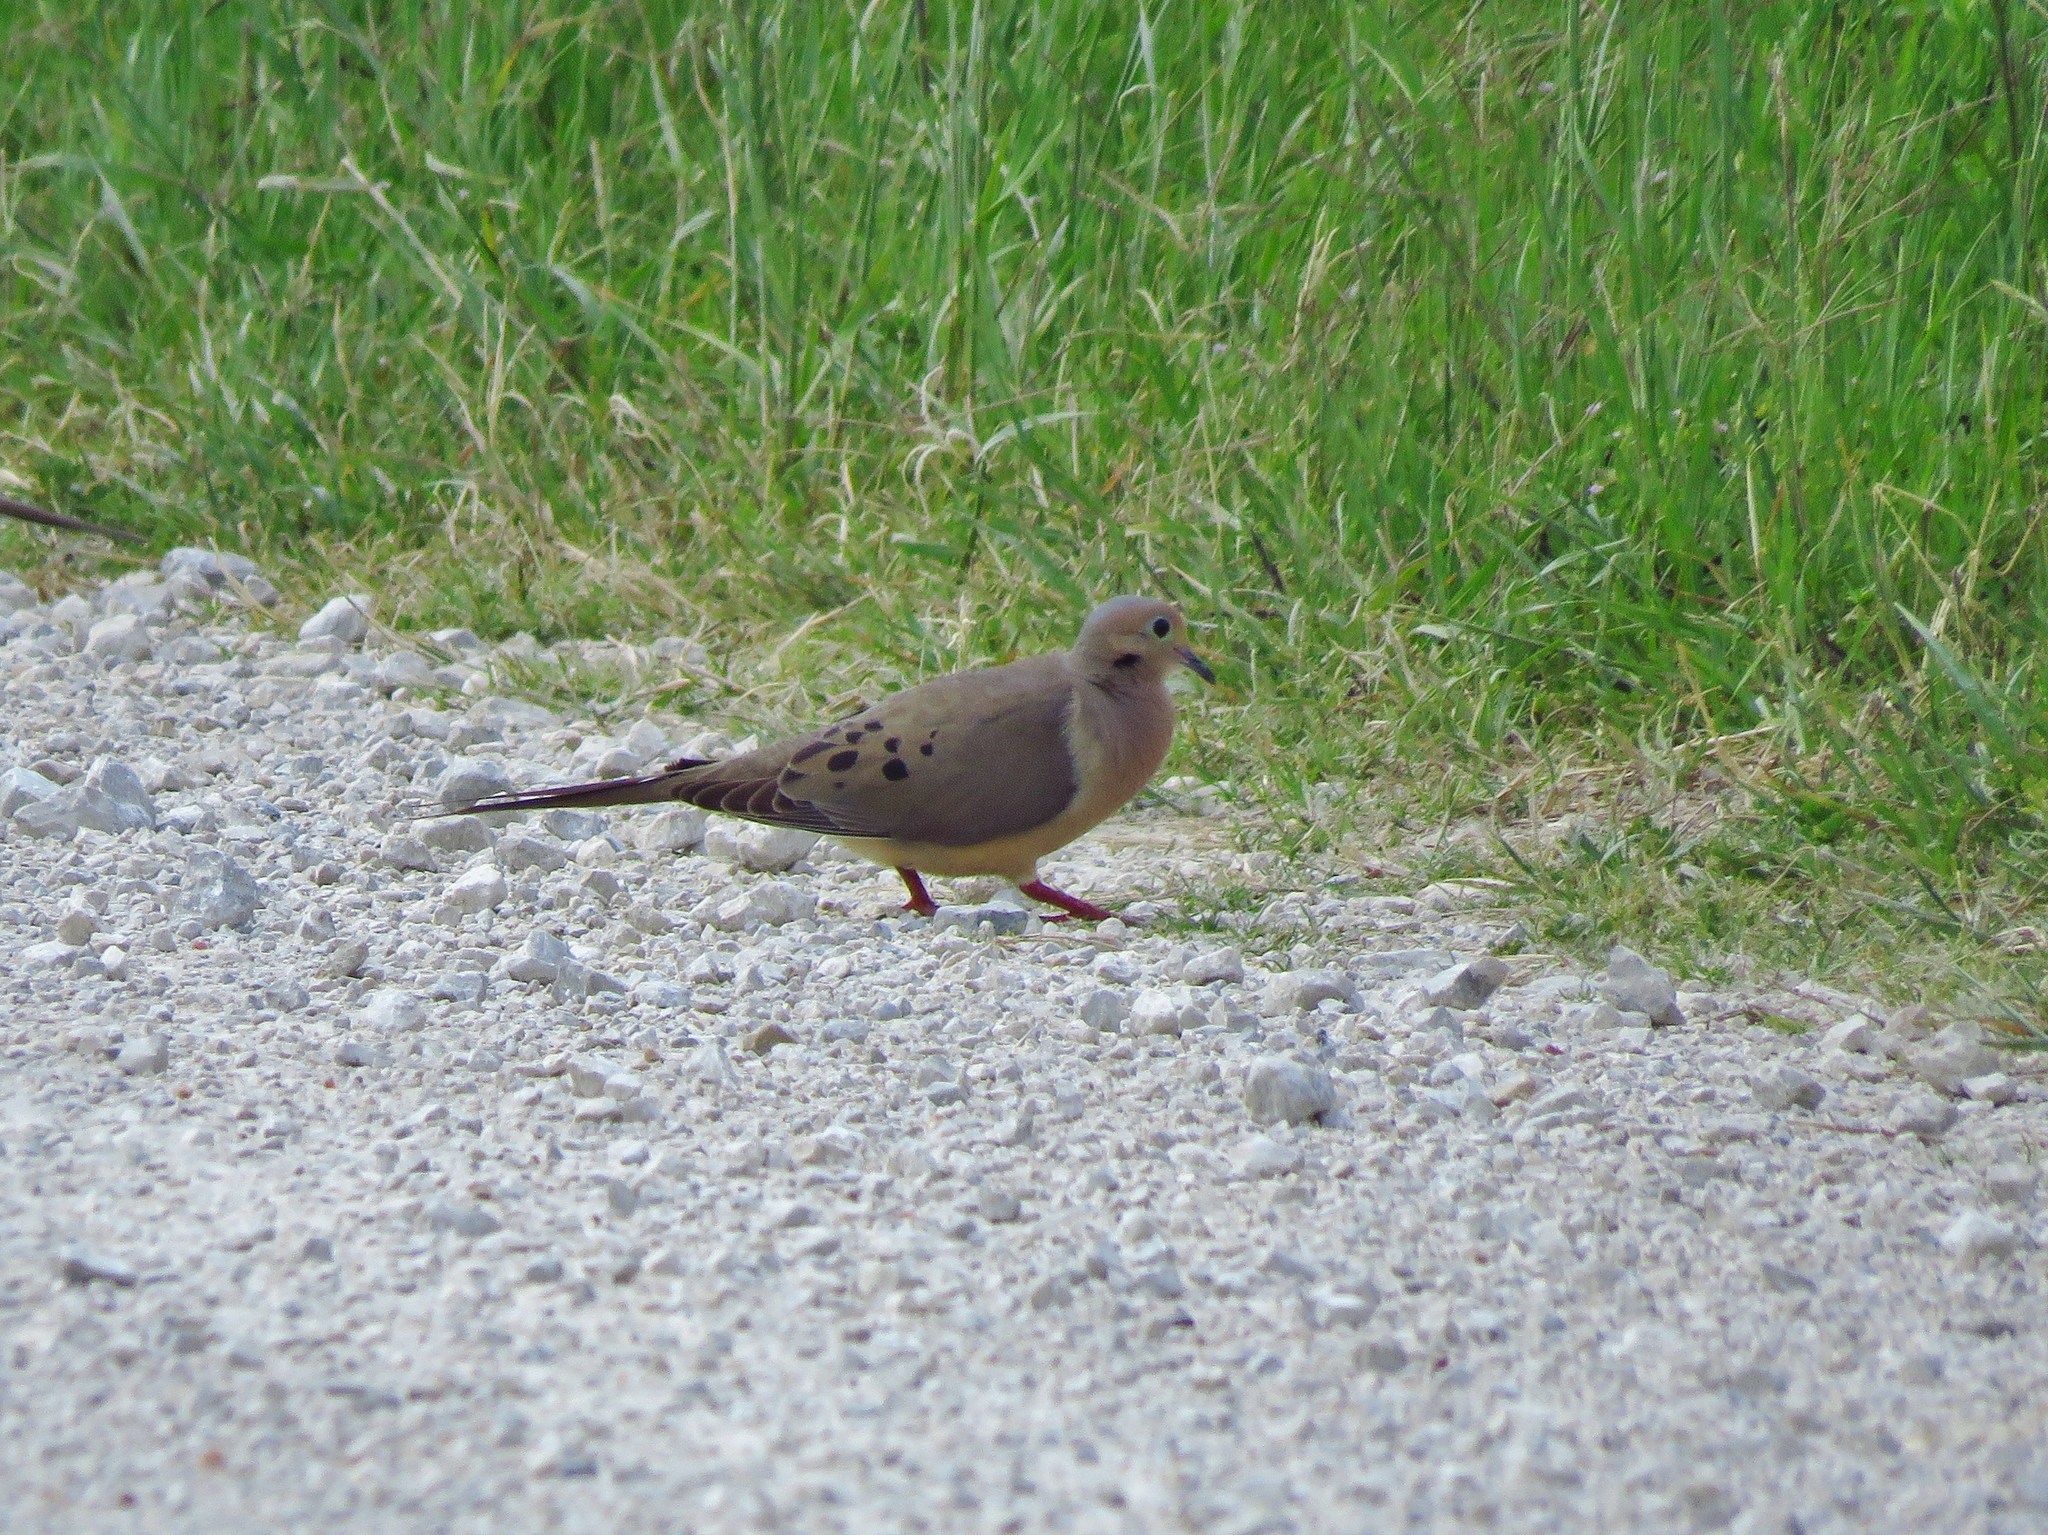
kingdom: Animalia
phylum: Chordata
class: Aves
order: Columbiformes
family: Columbidae
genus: Zenaida
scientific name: Zenaida macroura
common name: Mourning dove
